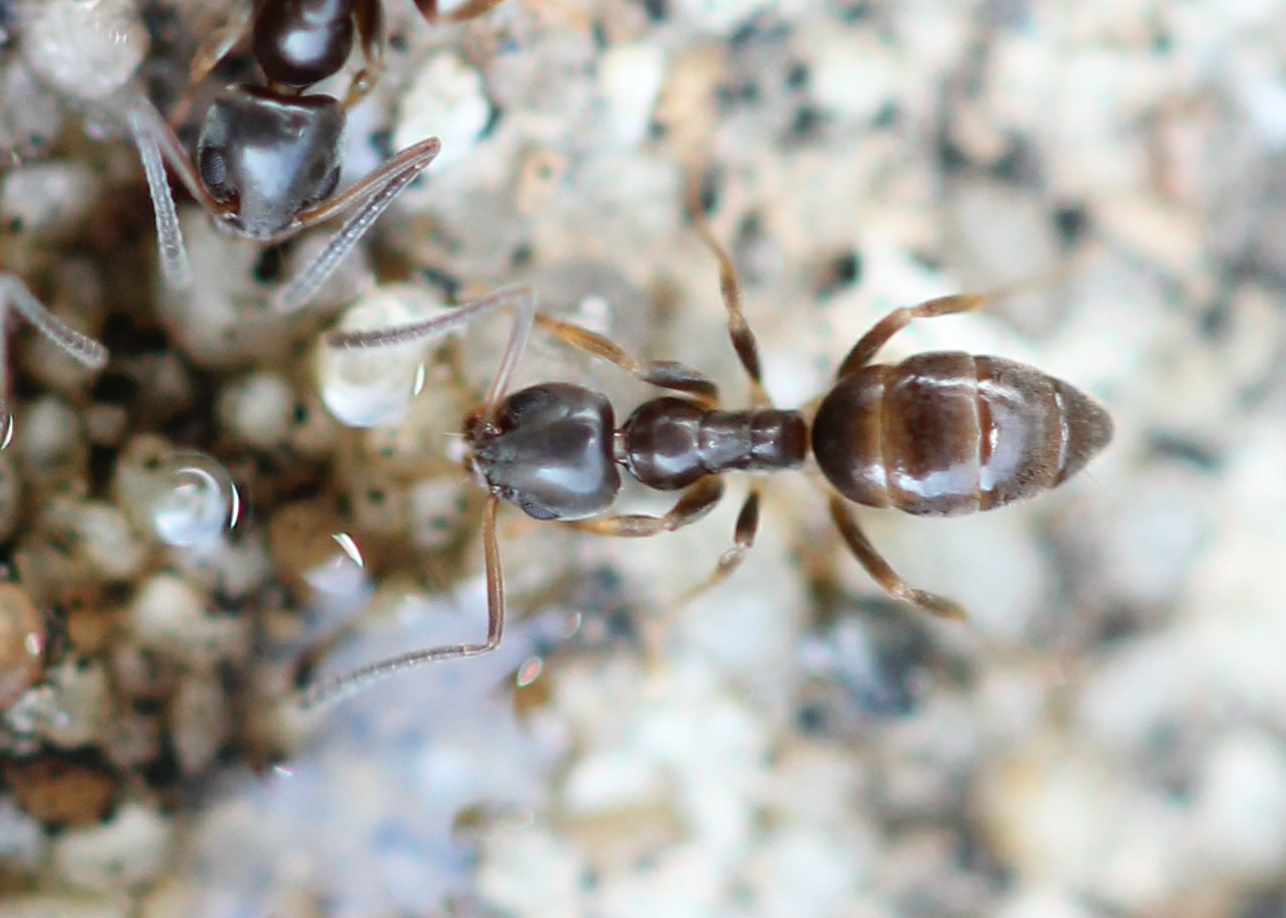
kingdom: Animalia
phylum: Arthropoda
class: Insecta
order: Hymenoptera
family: Formicidae
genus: Tapinoma
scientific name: Tapinoma sessile
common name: Odorous house ant
